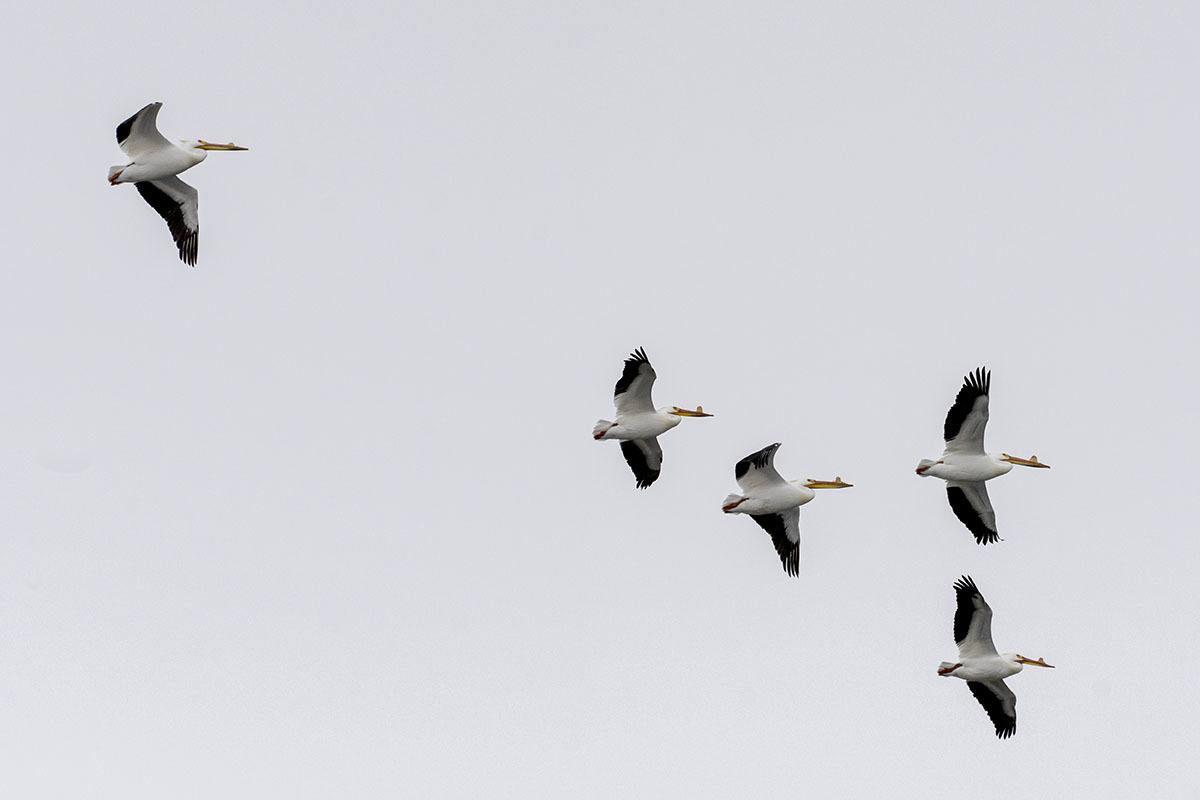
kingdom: Animalia
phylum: Chordata
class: Aves
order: Pelecaniformes
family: Pelecanidae
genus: Pelecanus
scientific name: Pelecanus erythrorhynchos
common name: American white pelican
